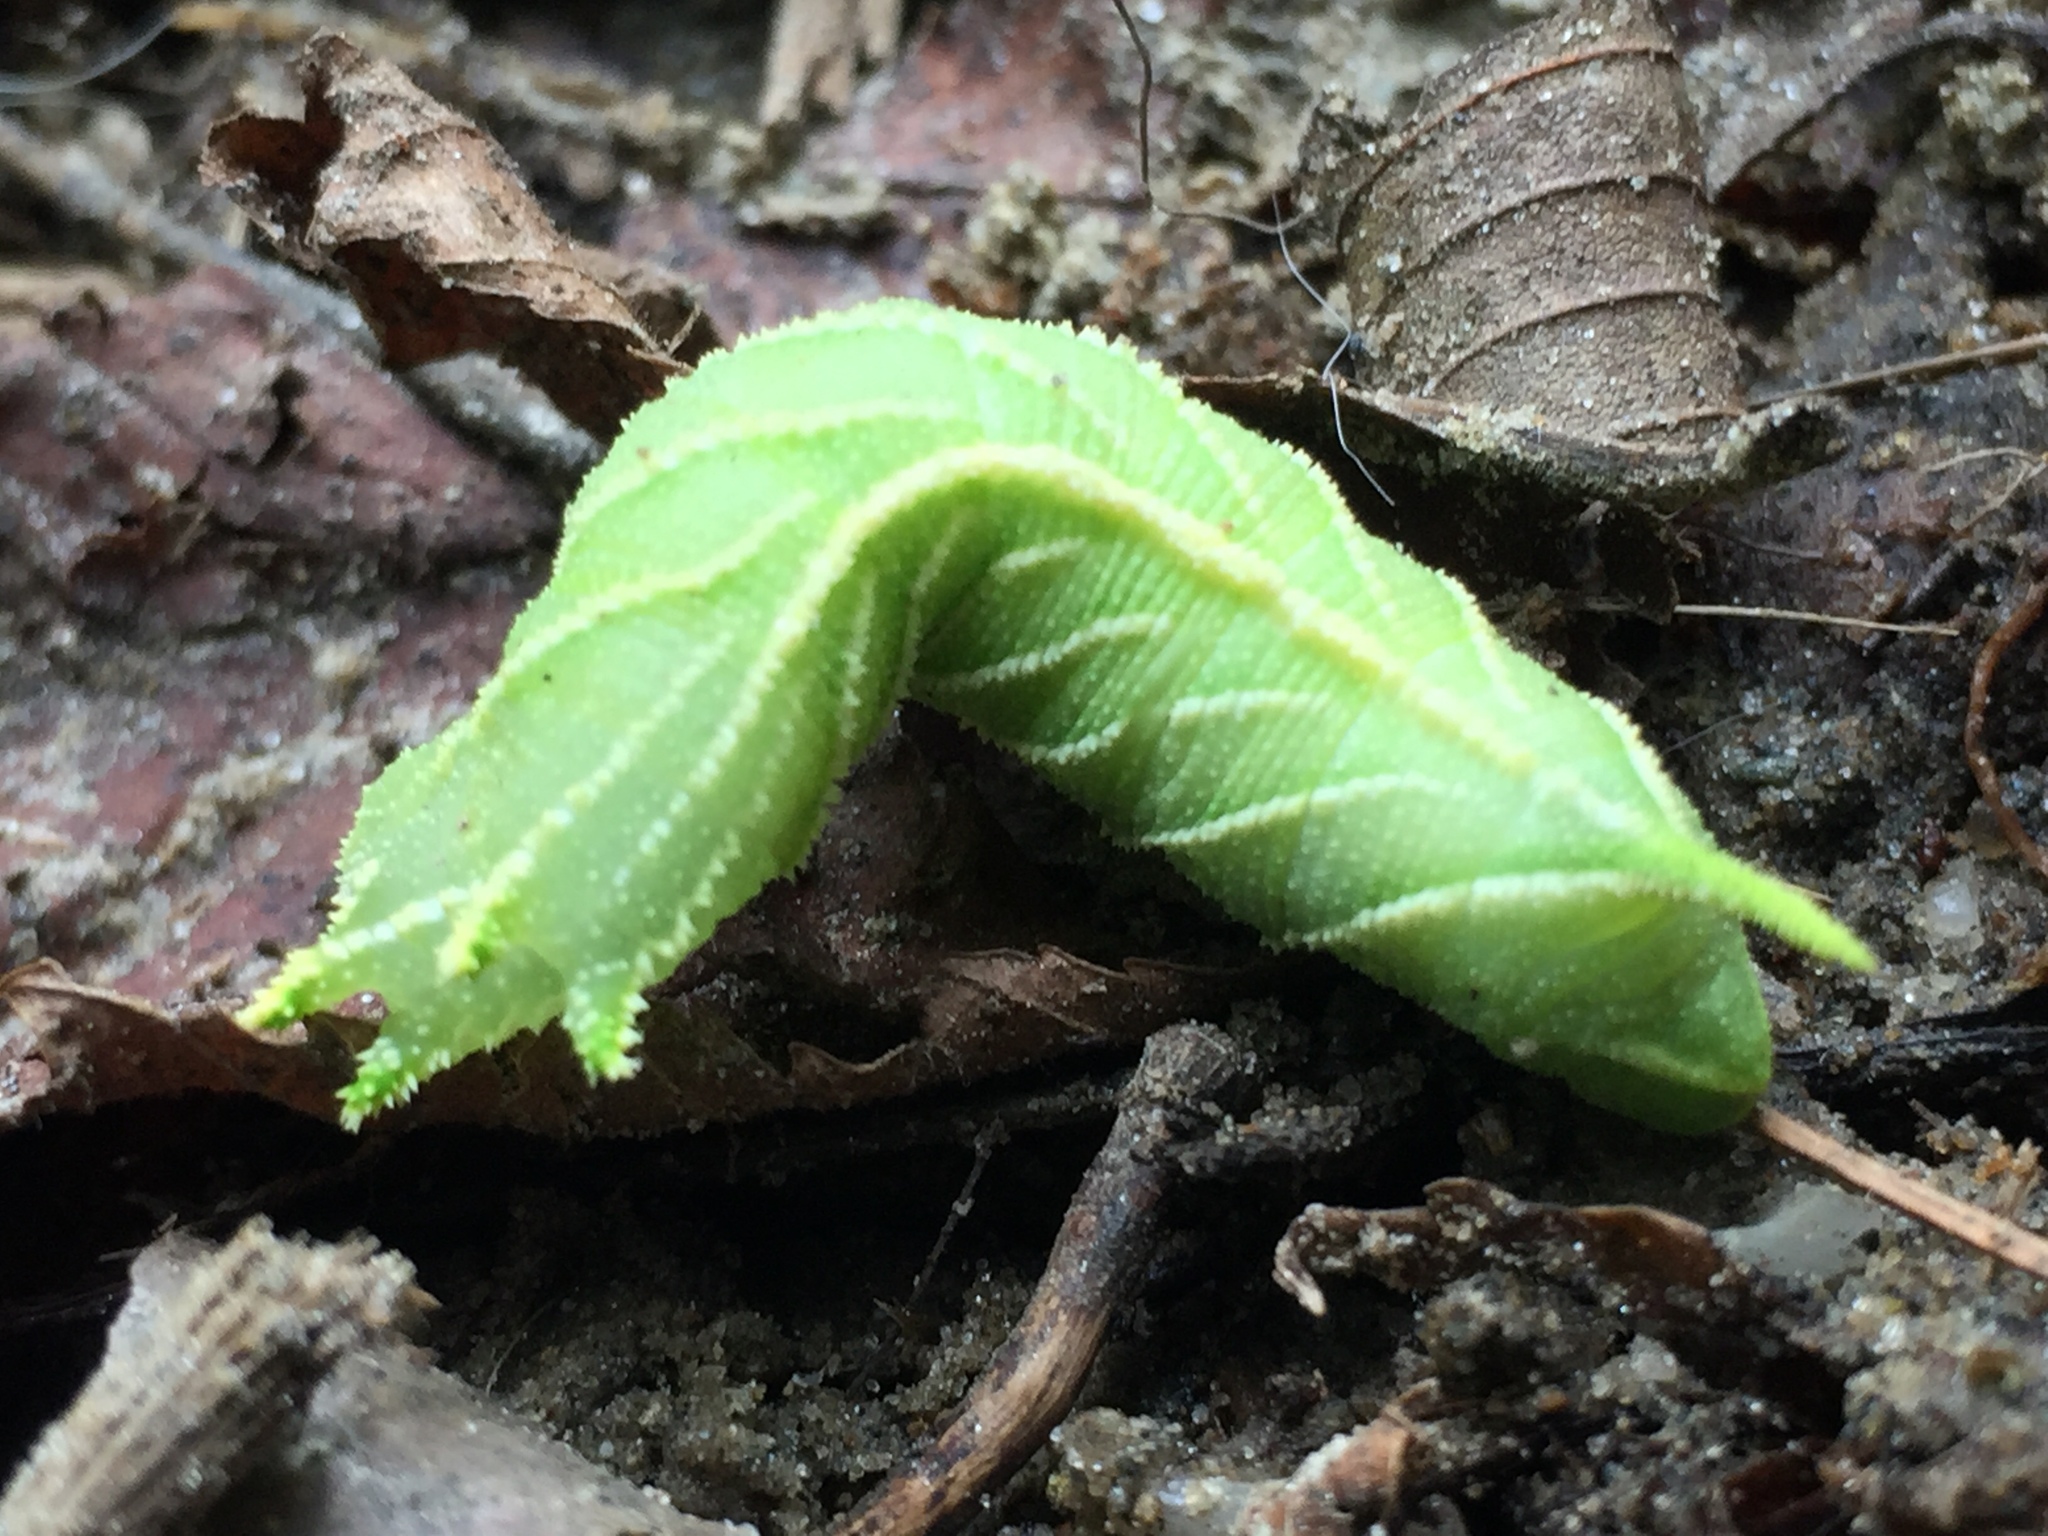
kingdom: Animalia
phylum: Arthropoda
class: Insecta
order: Lepidoptera
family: Sphingidae
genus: Ceratomia
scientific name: Ceratomia amyntor
